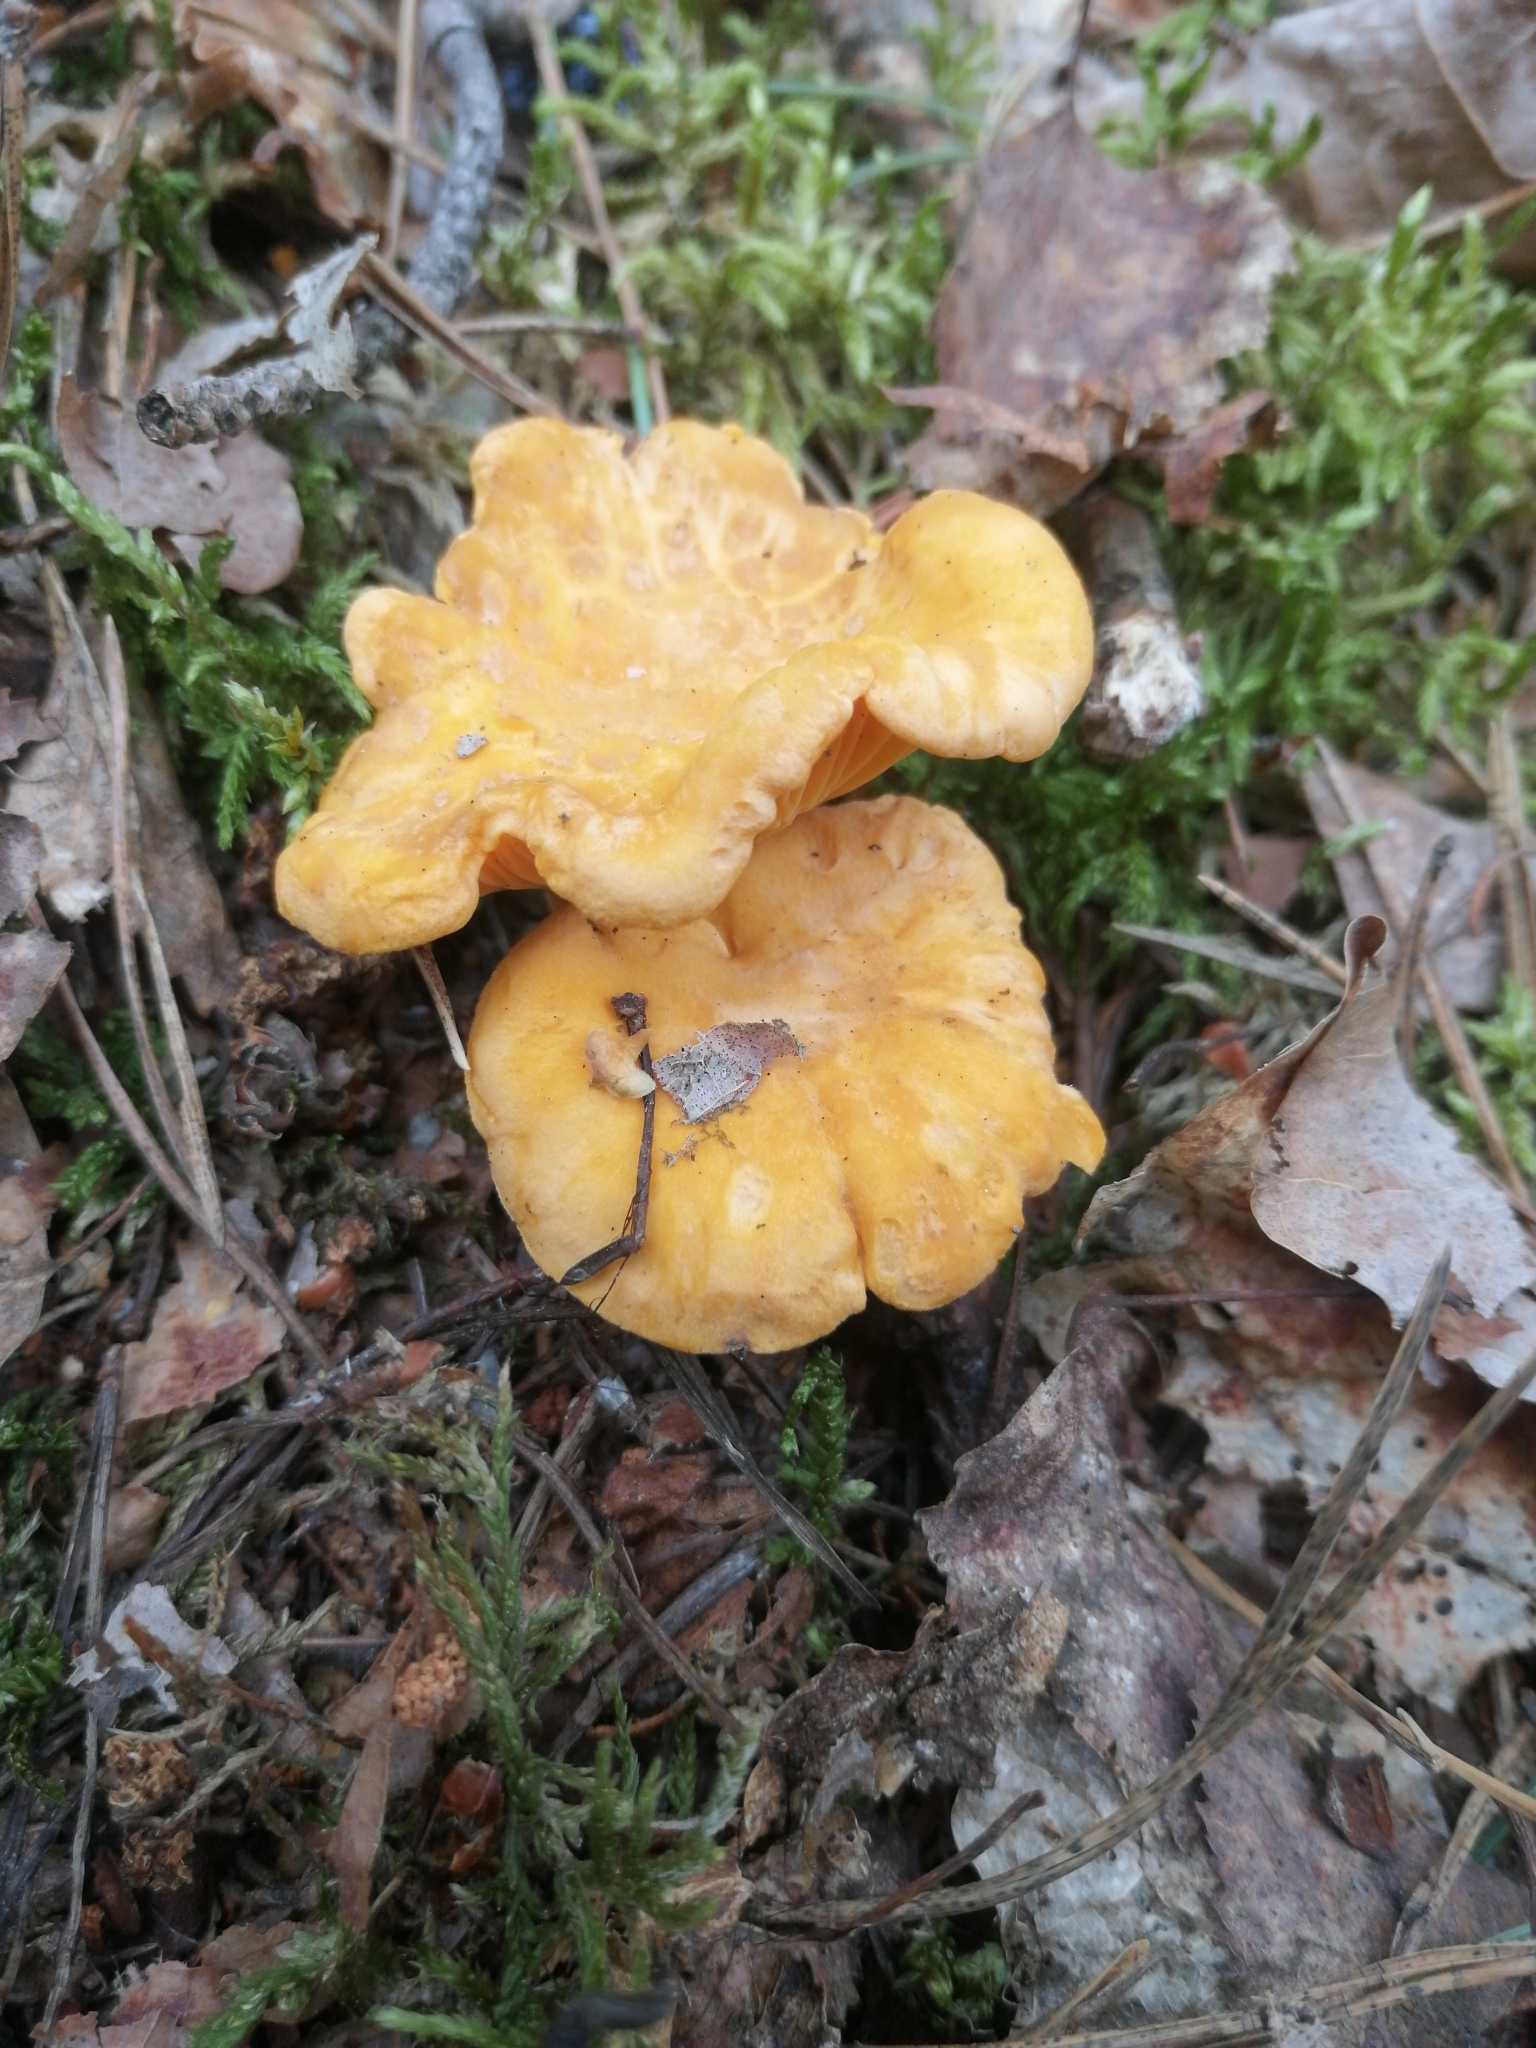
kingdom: Fungi
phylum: Basidiomycota
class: Agaricomycetes
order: Cantharellales
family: Hydnaceae
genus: Cantharellus
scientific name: Cantharellus cibarius
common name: Chanterelle
